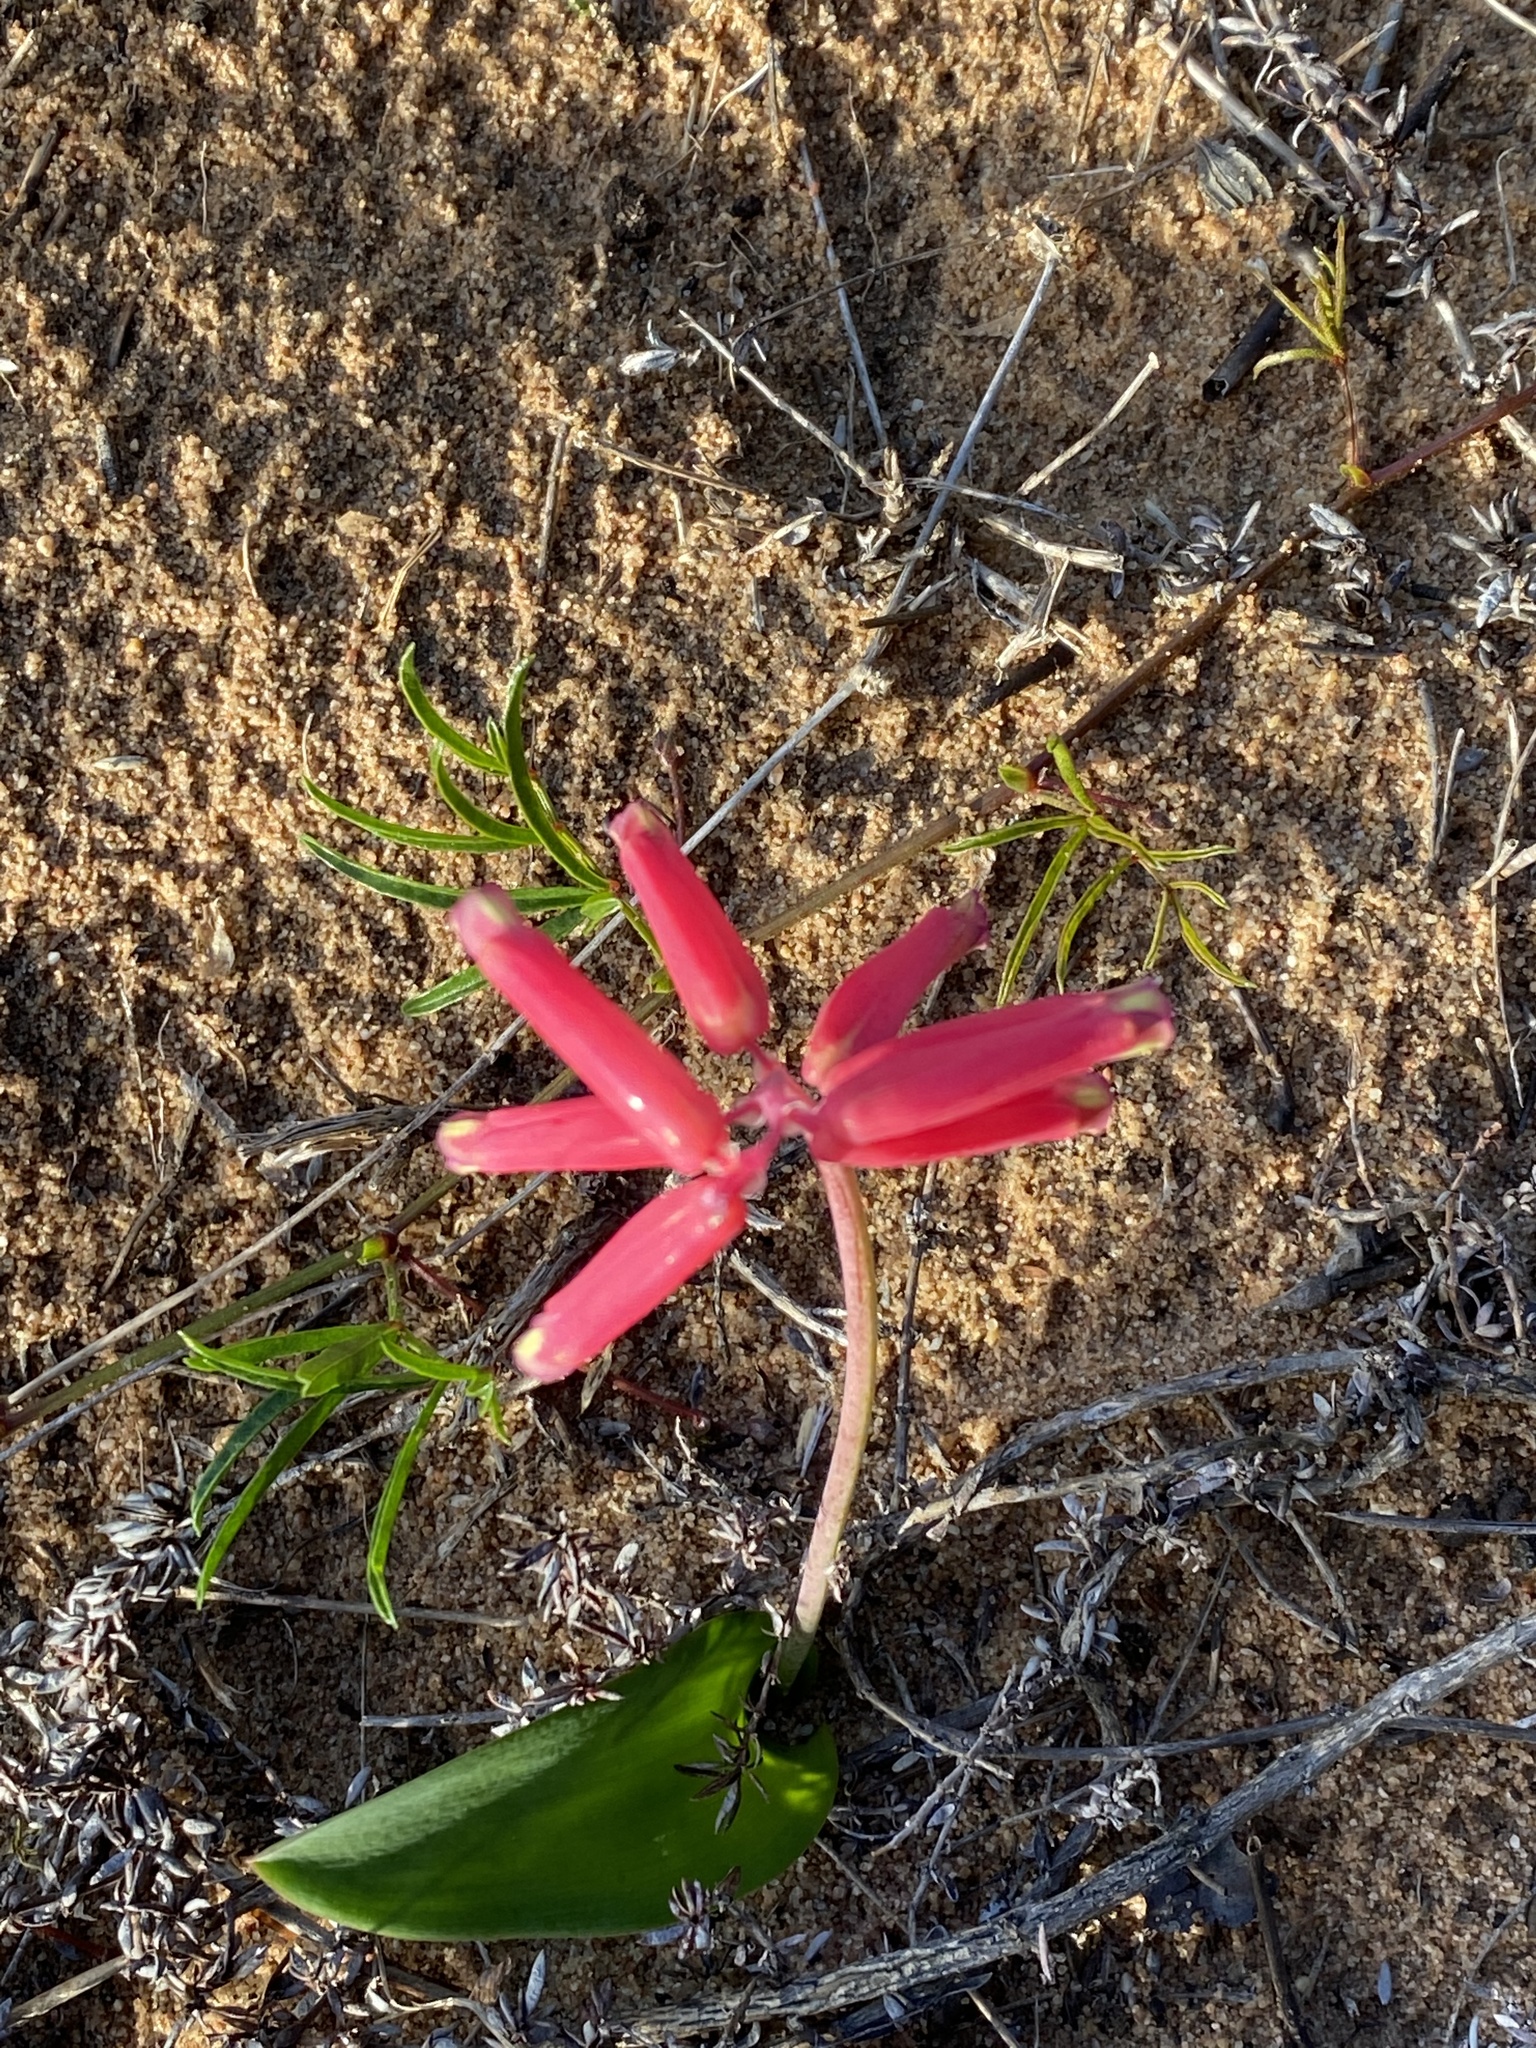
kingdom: Plantae
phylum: Tracheophyta
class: Liliopsida
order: Asparagales
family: Asparagaceae
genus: Lachenalia
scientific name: Lachenalia bulbifera
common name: Red lachenalia
